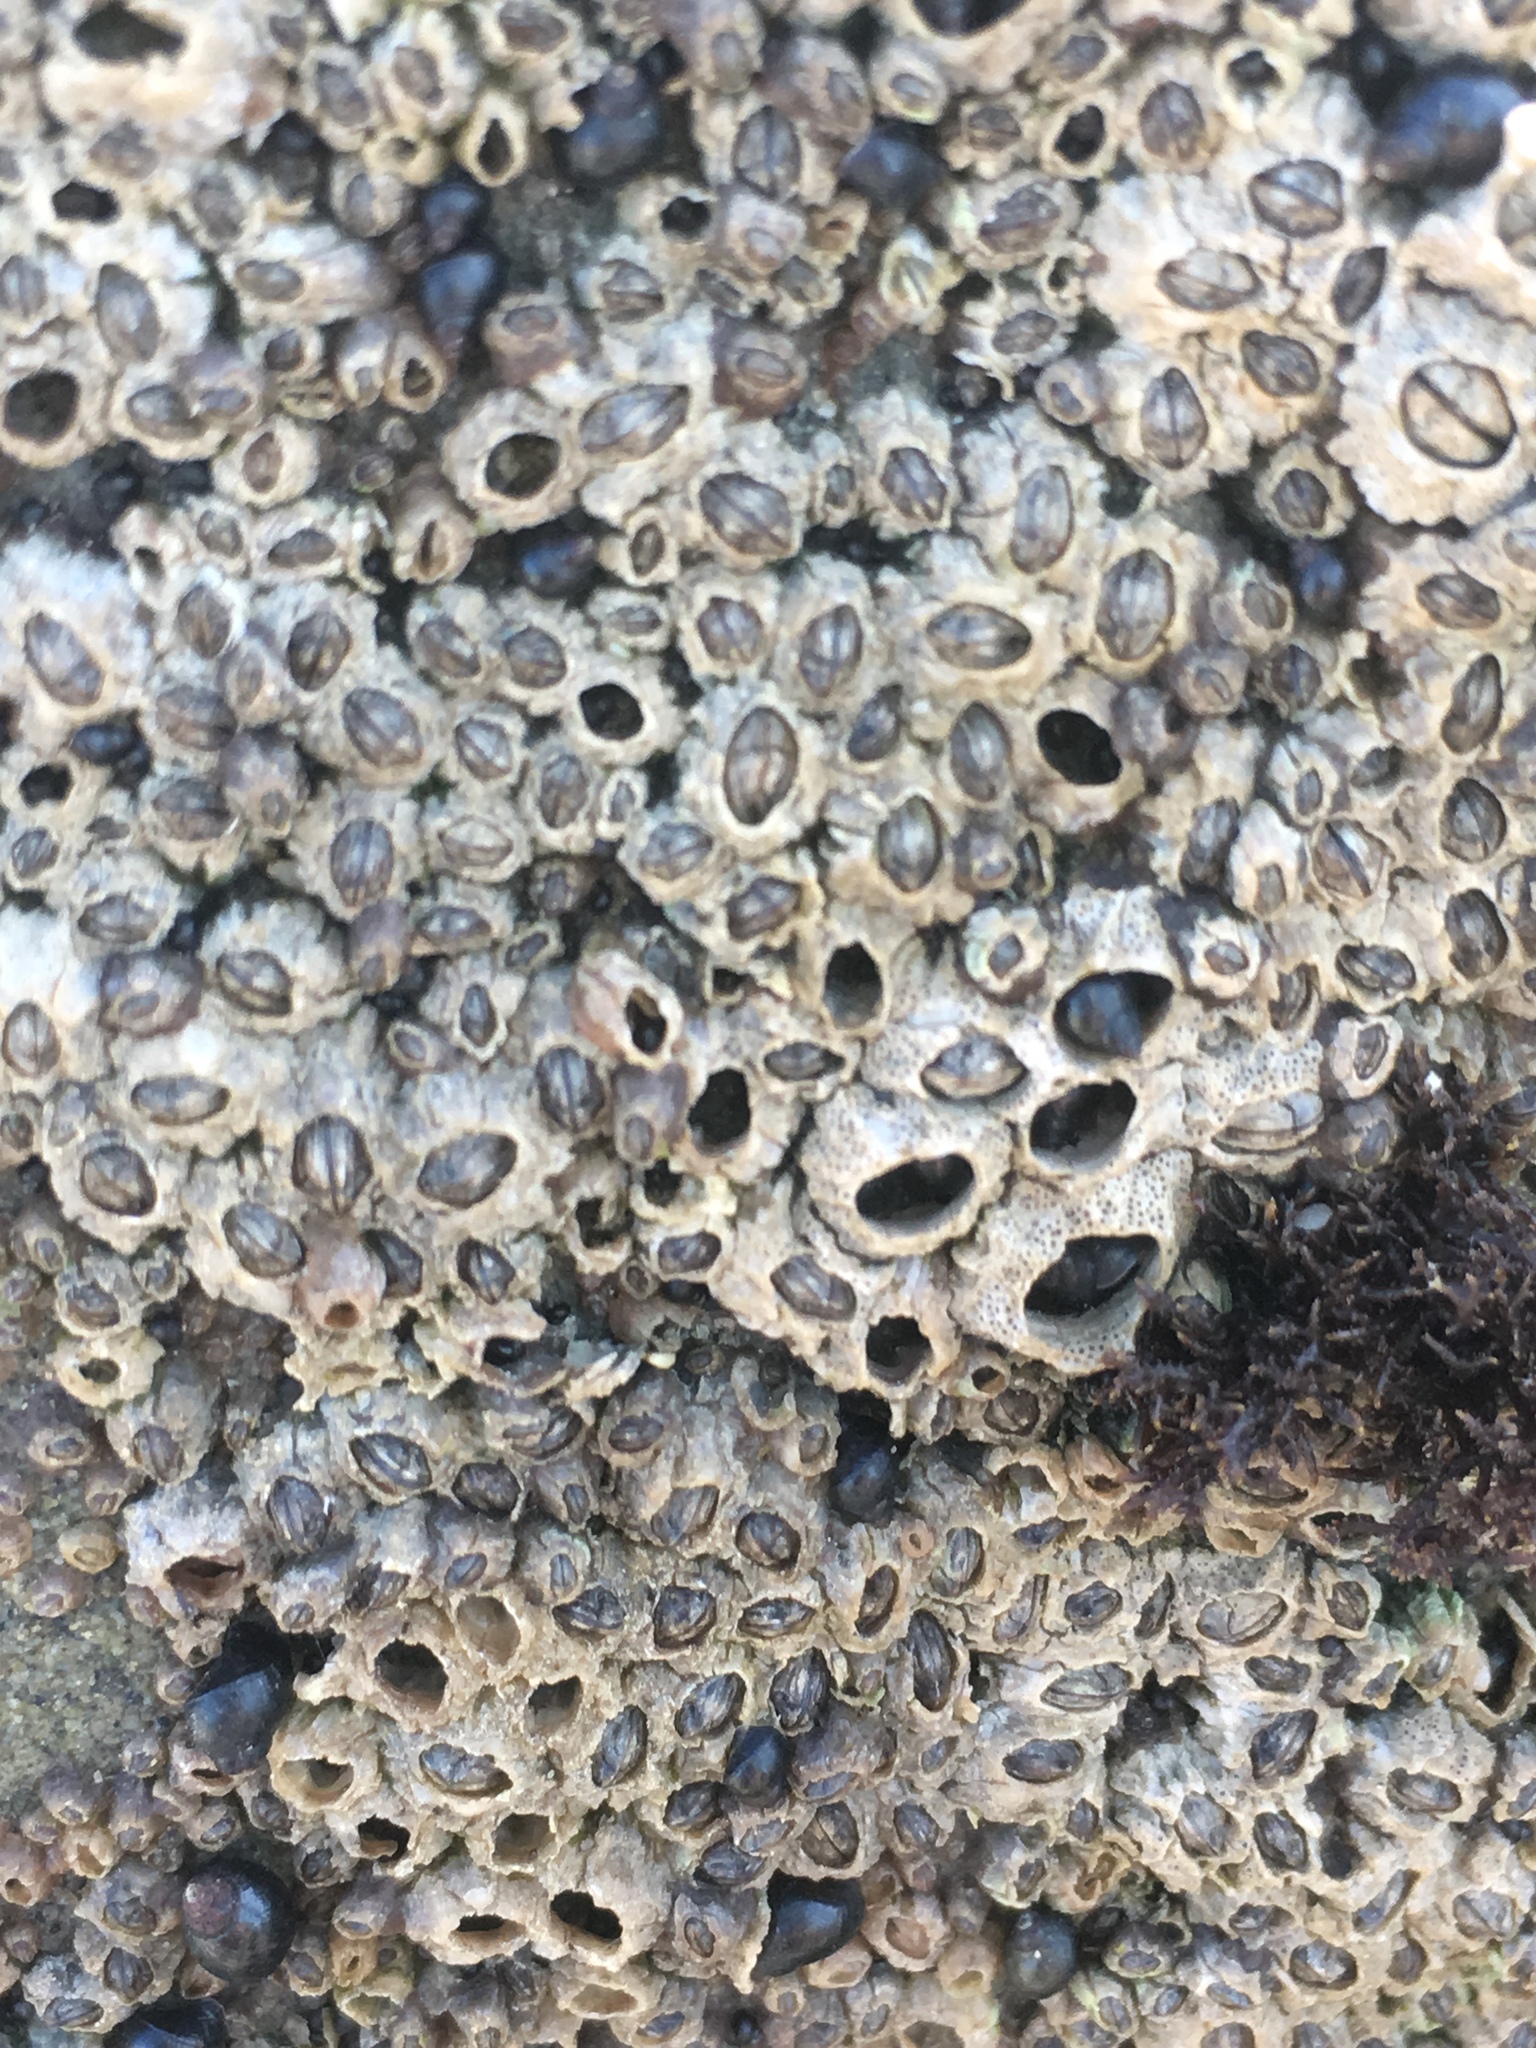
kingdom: Animalia
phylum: Arthropoda
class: Maxillopoda
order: Sessilia
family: Chthamalidae
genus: Chthamalus
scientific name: Chthamalus dalli
